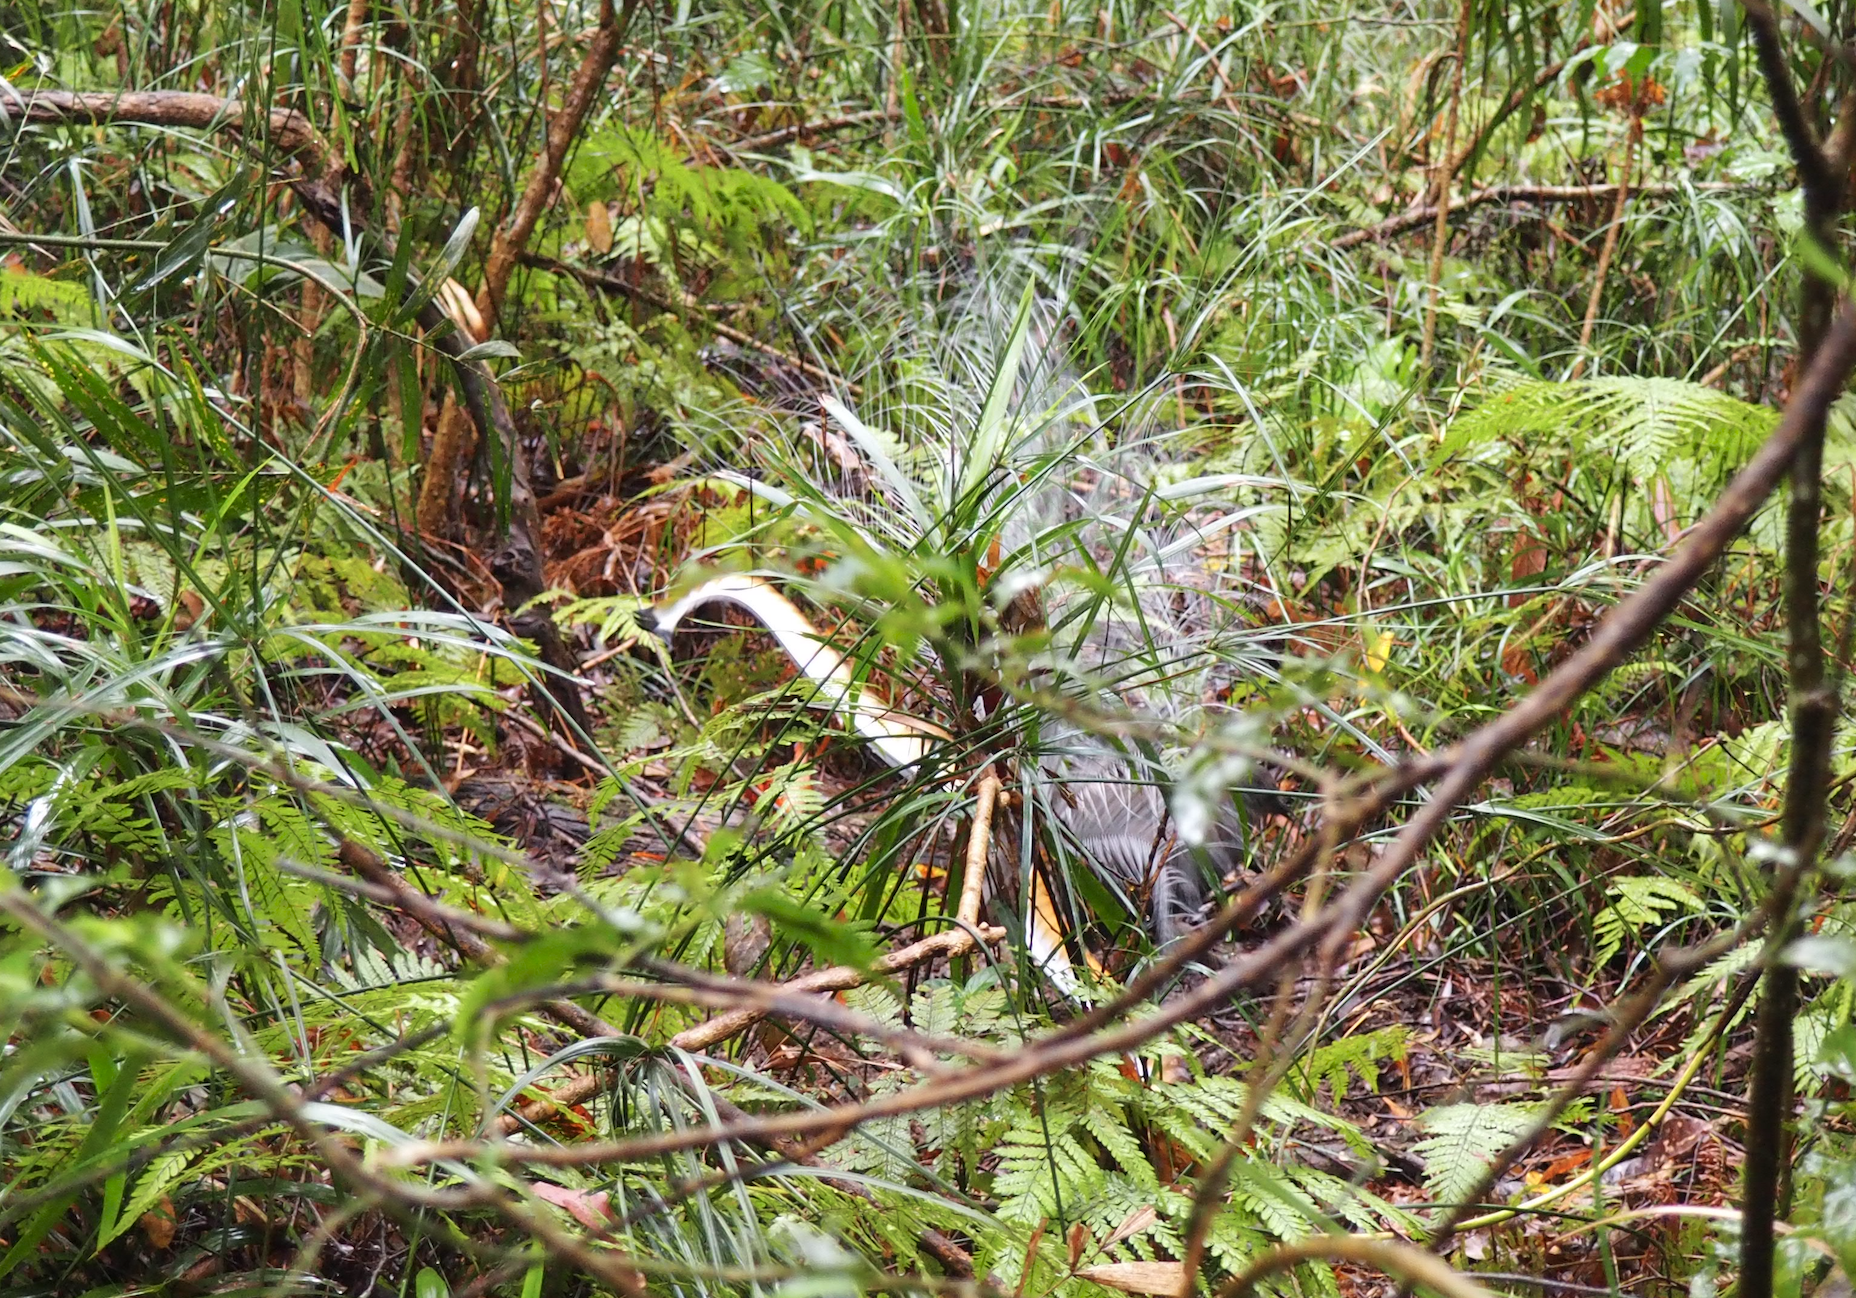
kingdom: Animalia
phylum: Chordata
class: Aves
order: Passeriformes
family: Menuridae
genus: Menura
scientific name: Menura novaehollandiae
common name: Superb lyrebird
